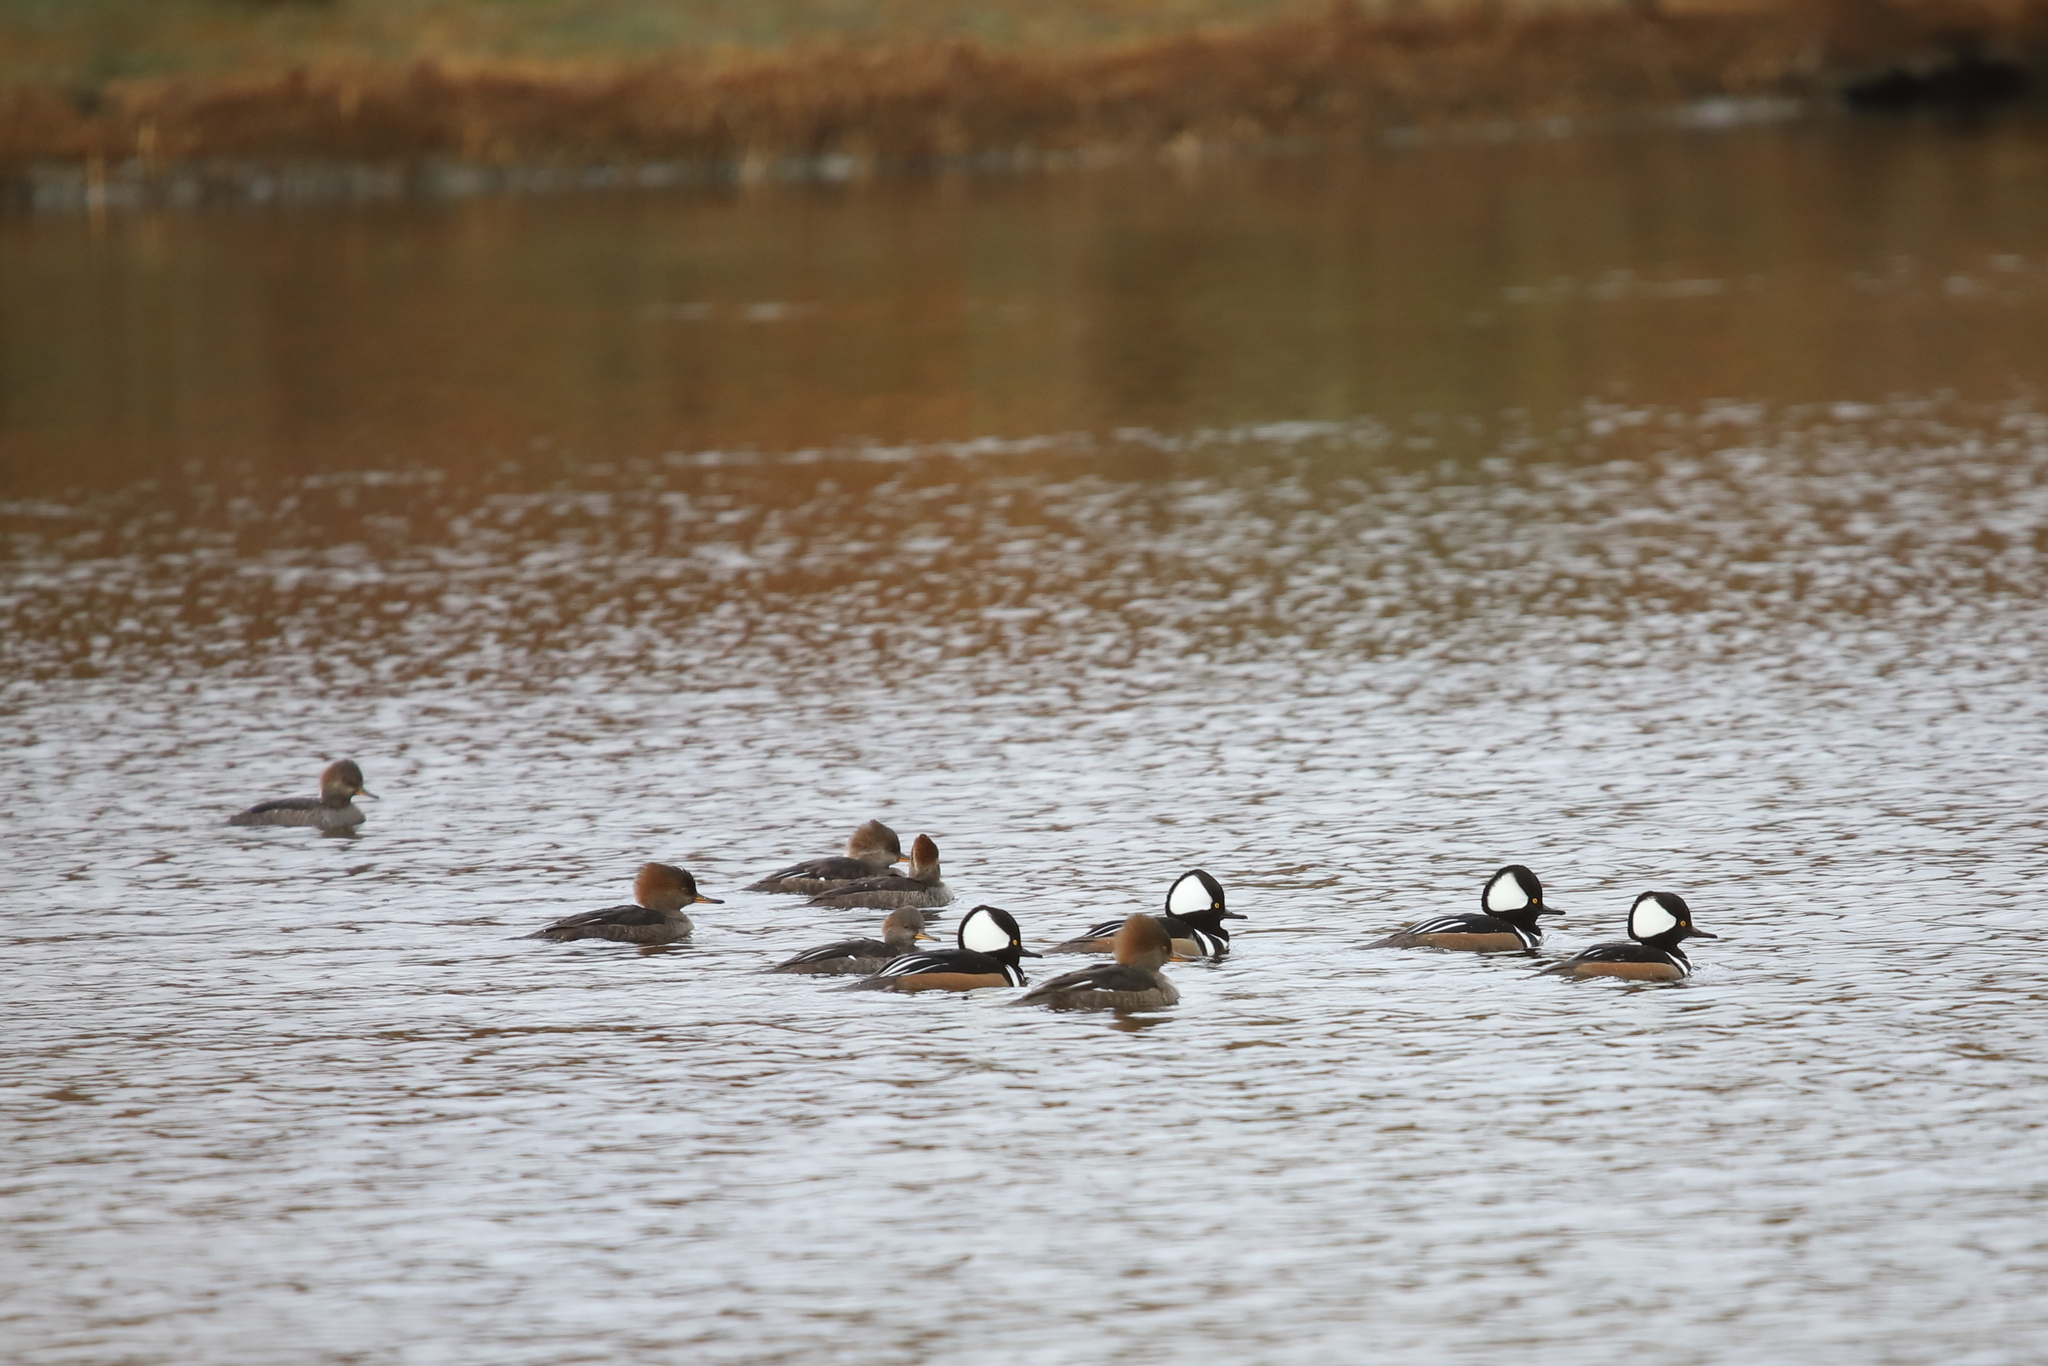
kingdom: Animalia
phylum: Chordata
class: Aves
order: Anseriformes
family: Anatidae
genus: Lophodytes
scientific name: Lophodytes cucullatus
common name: Hooded merganser
